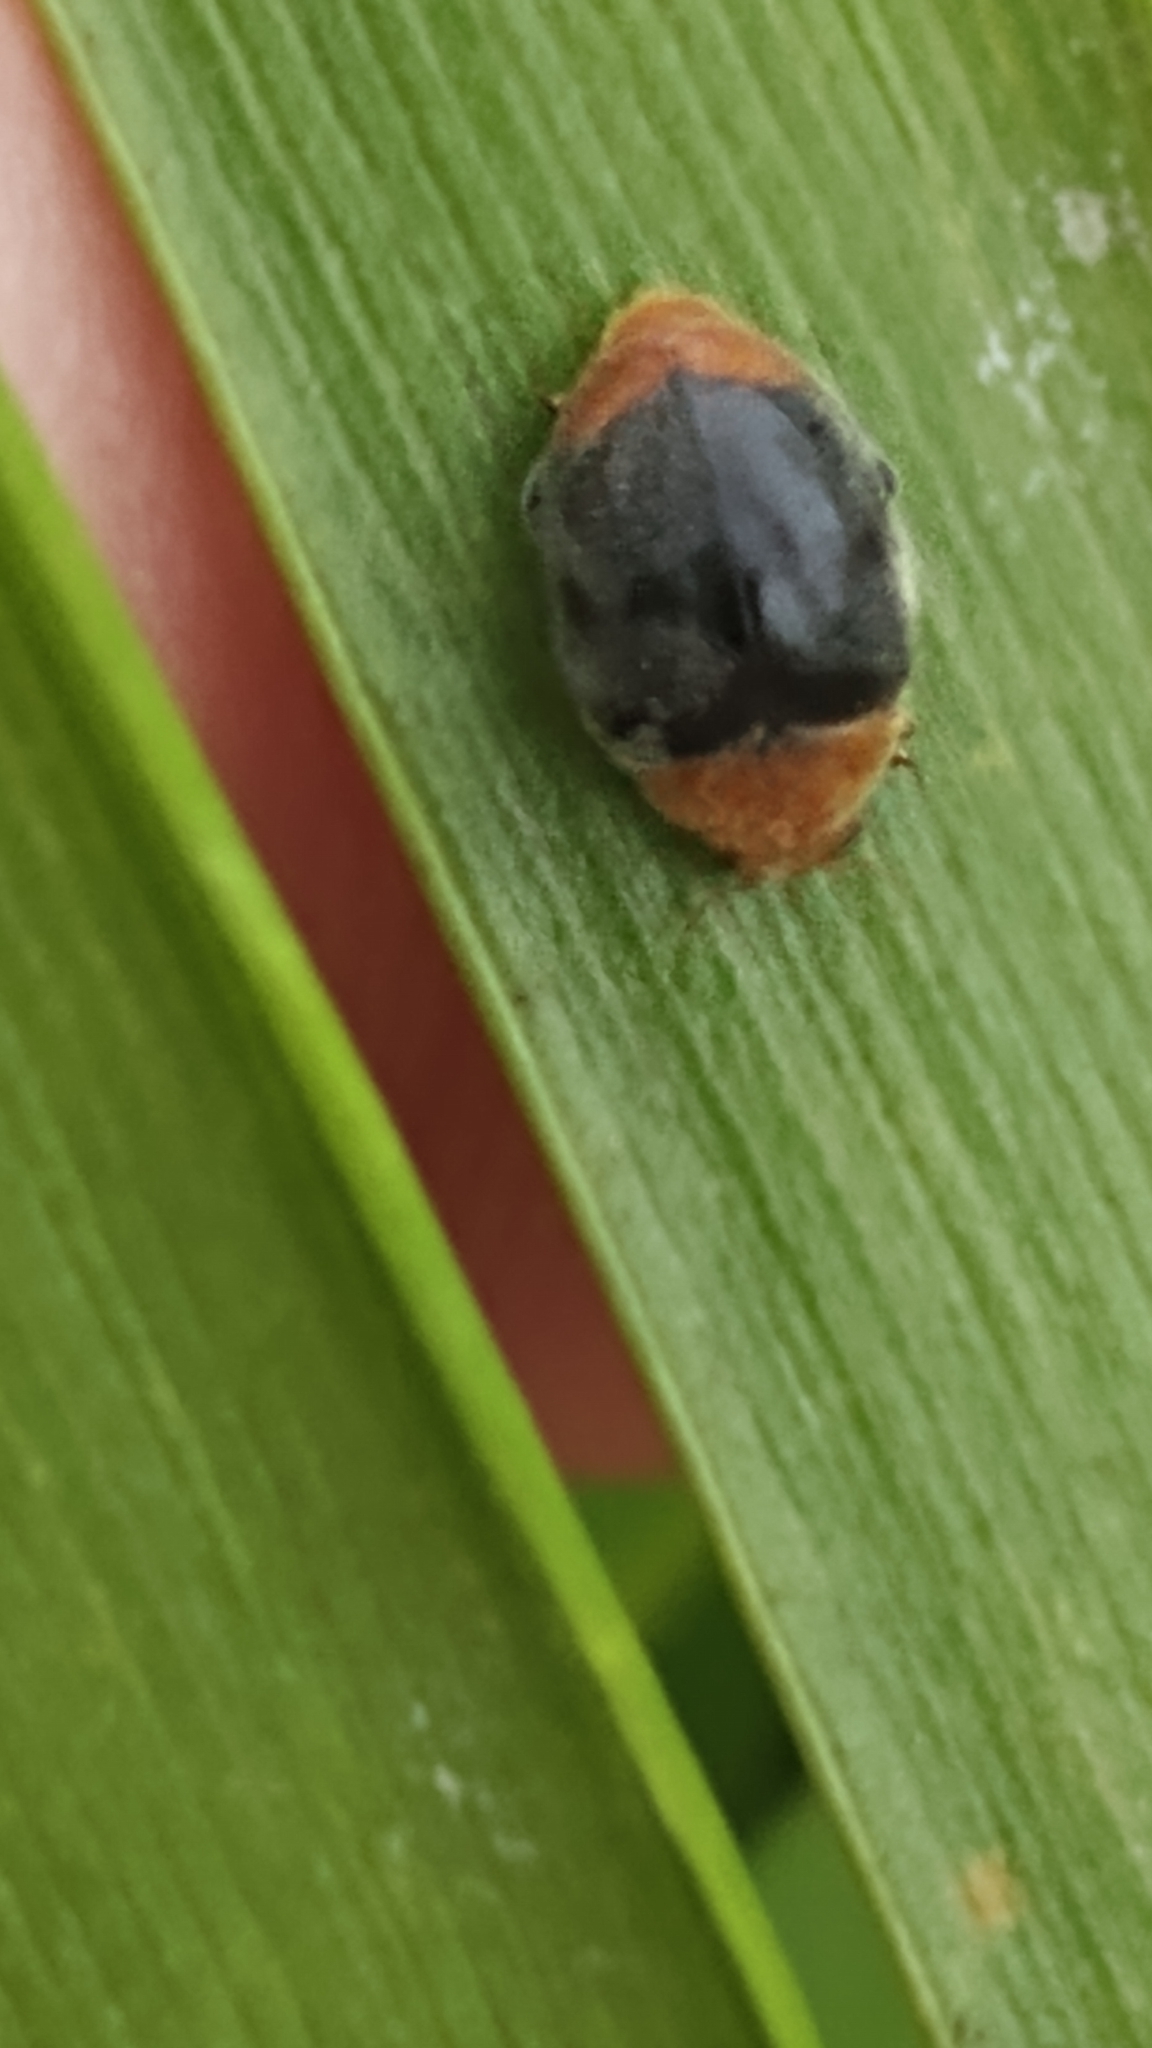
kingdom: Animalia
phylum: Arthropoda
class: Insecta
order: Coleoptera
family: Coccinellidae
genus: Cryptolaemus
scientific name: Cryptolaemus montrouzieri
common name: Mealybug destroyer
